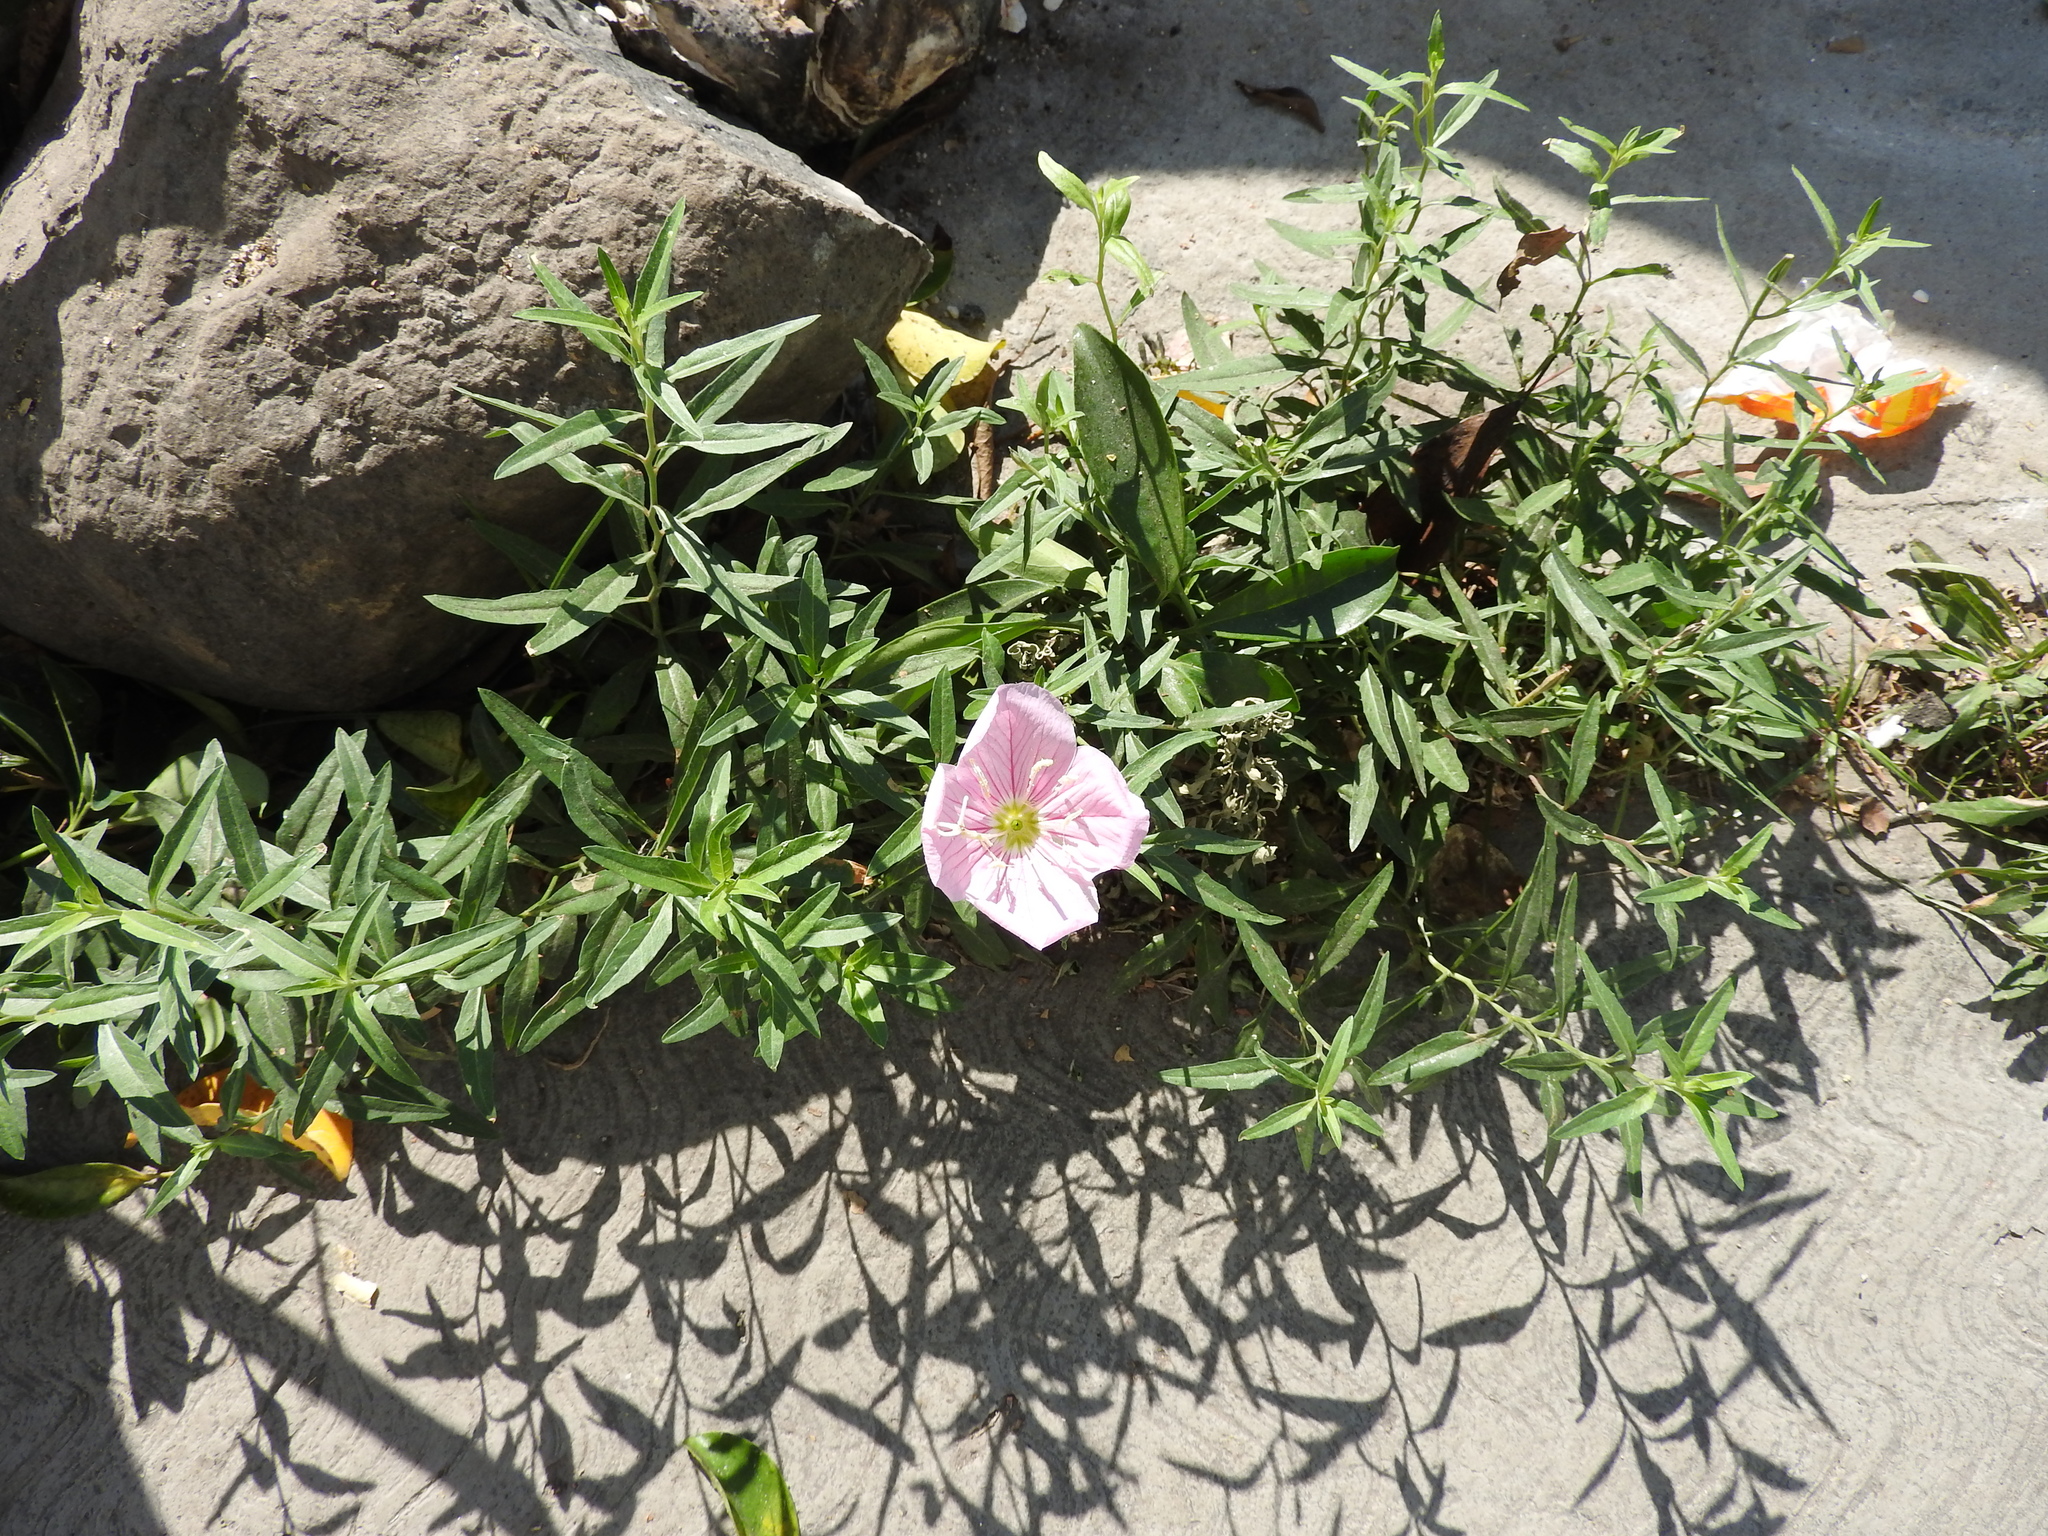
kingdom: Plantae
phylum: Tracheophyta
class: Magnoliopsida
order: Myrtales
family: Onagraceae
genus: Oenothera
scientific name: Oenothera speciosa
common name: White evening-primrose
